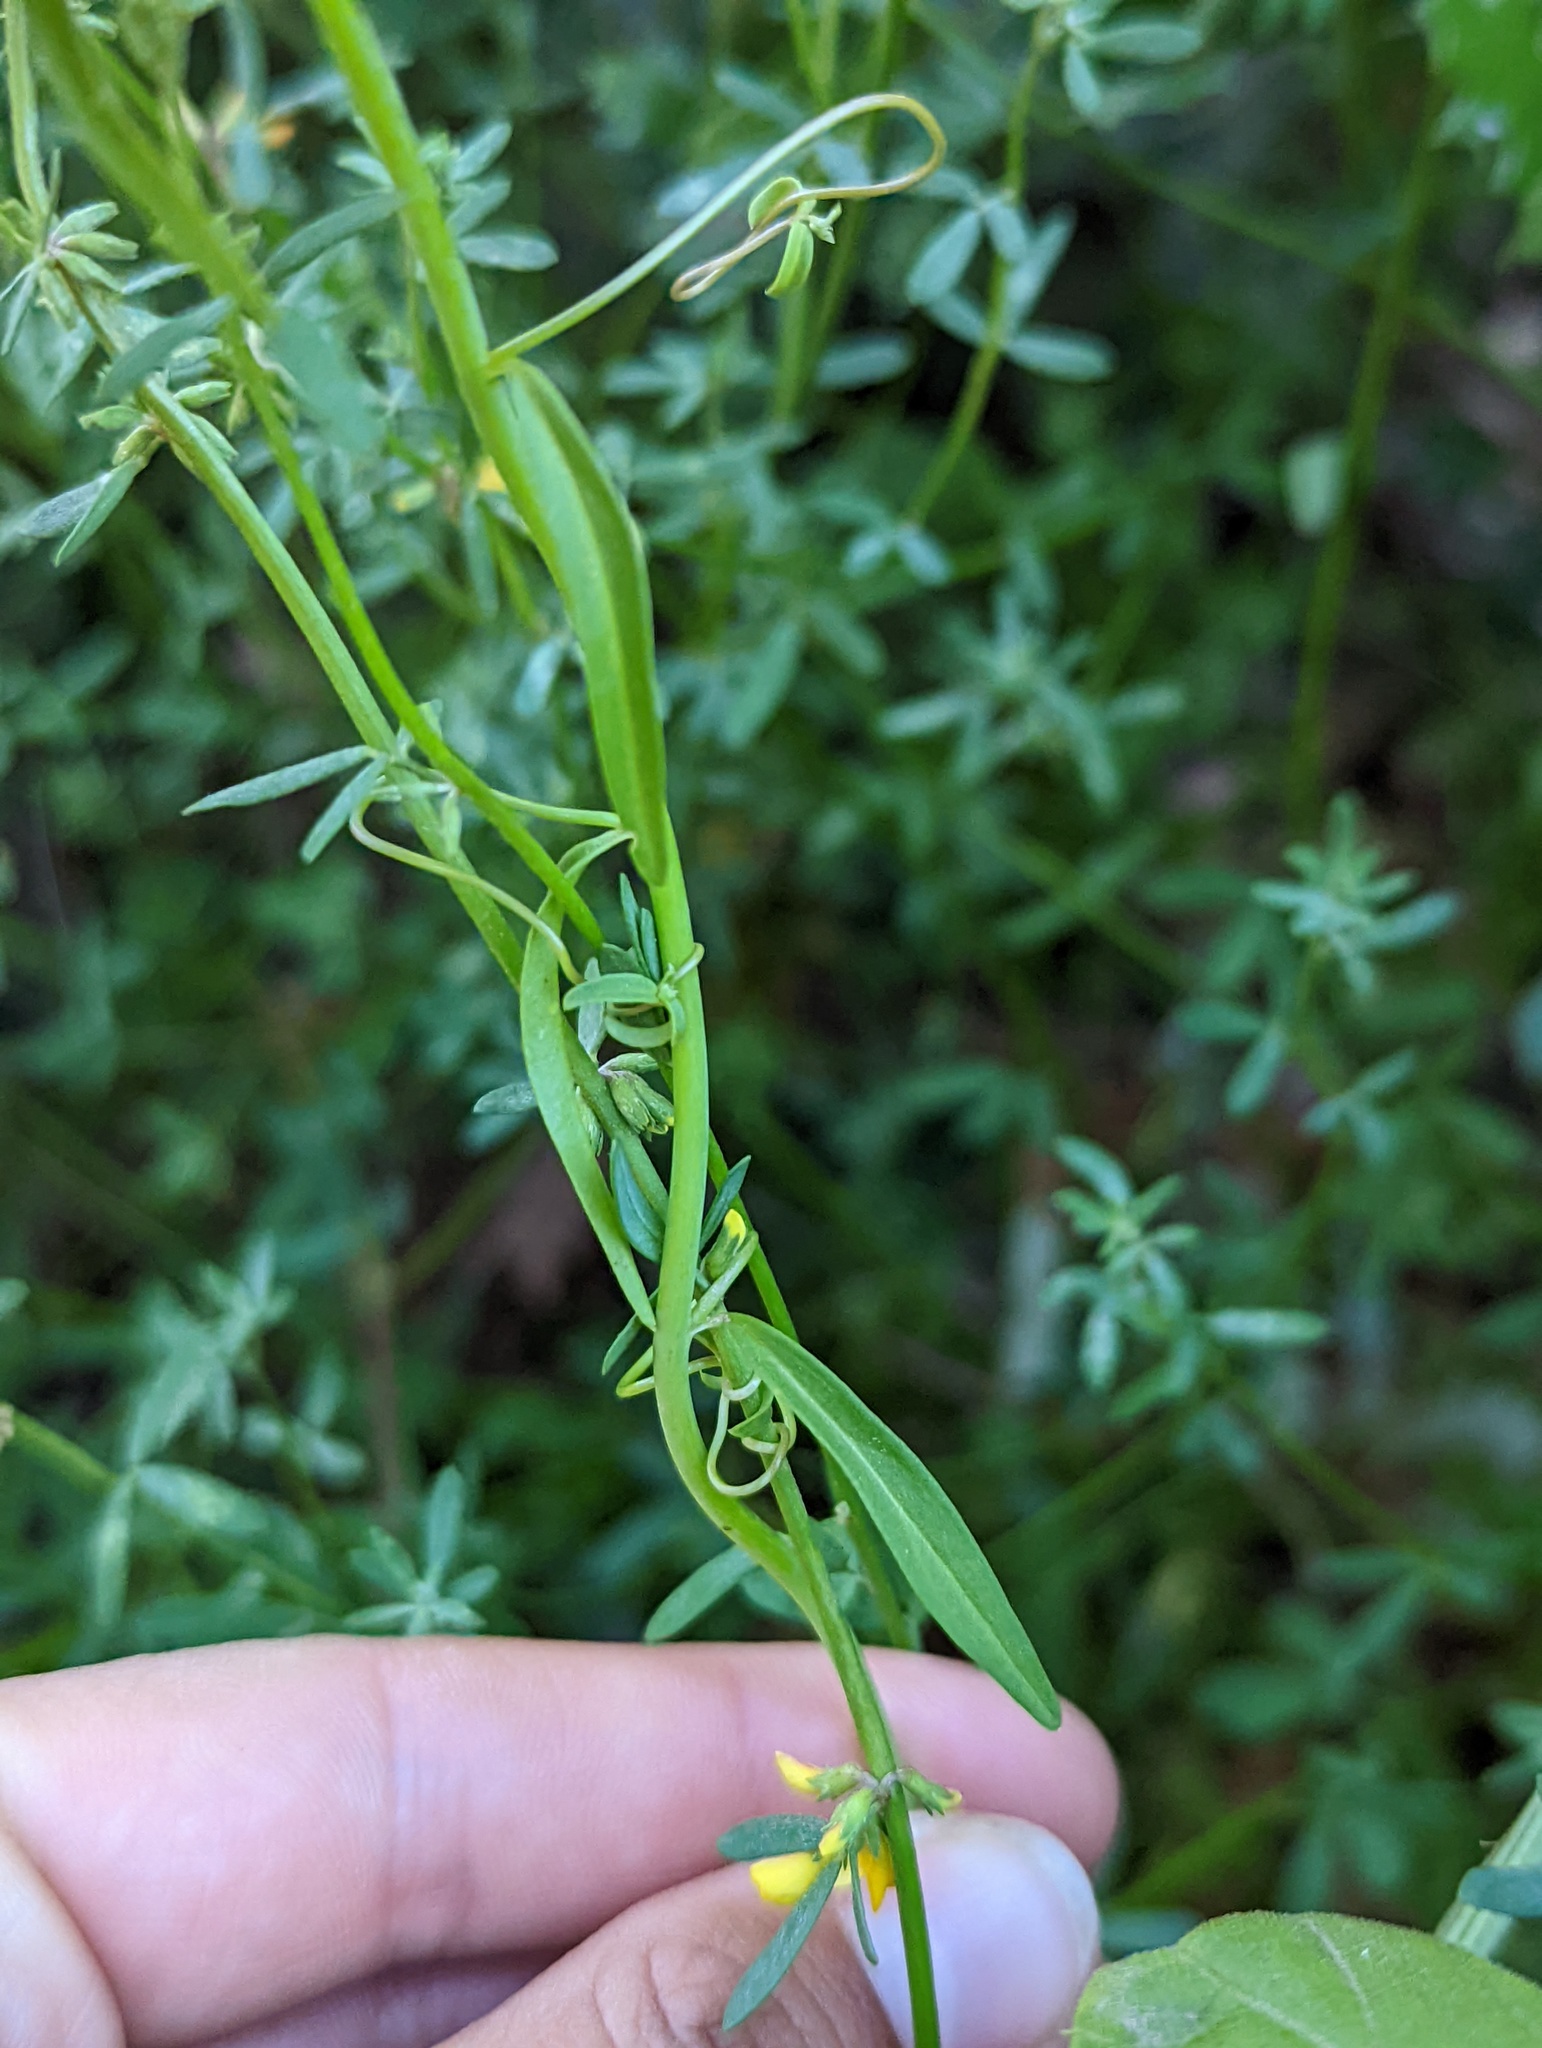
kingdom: Plantae
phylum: Tracheophyta
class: Magnoliopsida
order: Lamiales
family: Plantaginaceae
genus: Sairocarpus
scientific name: Sairocarpus coulterianus
